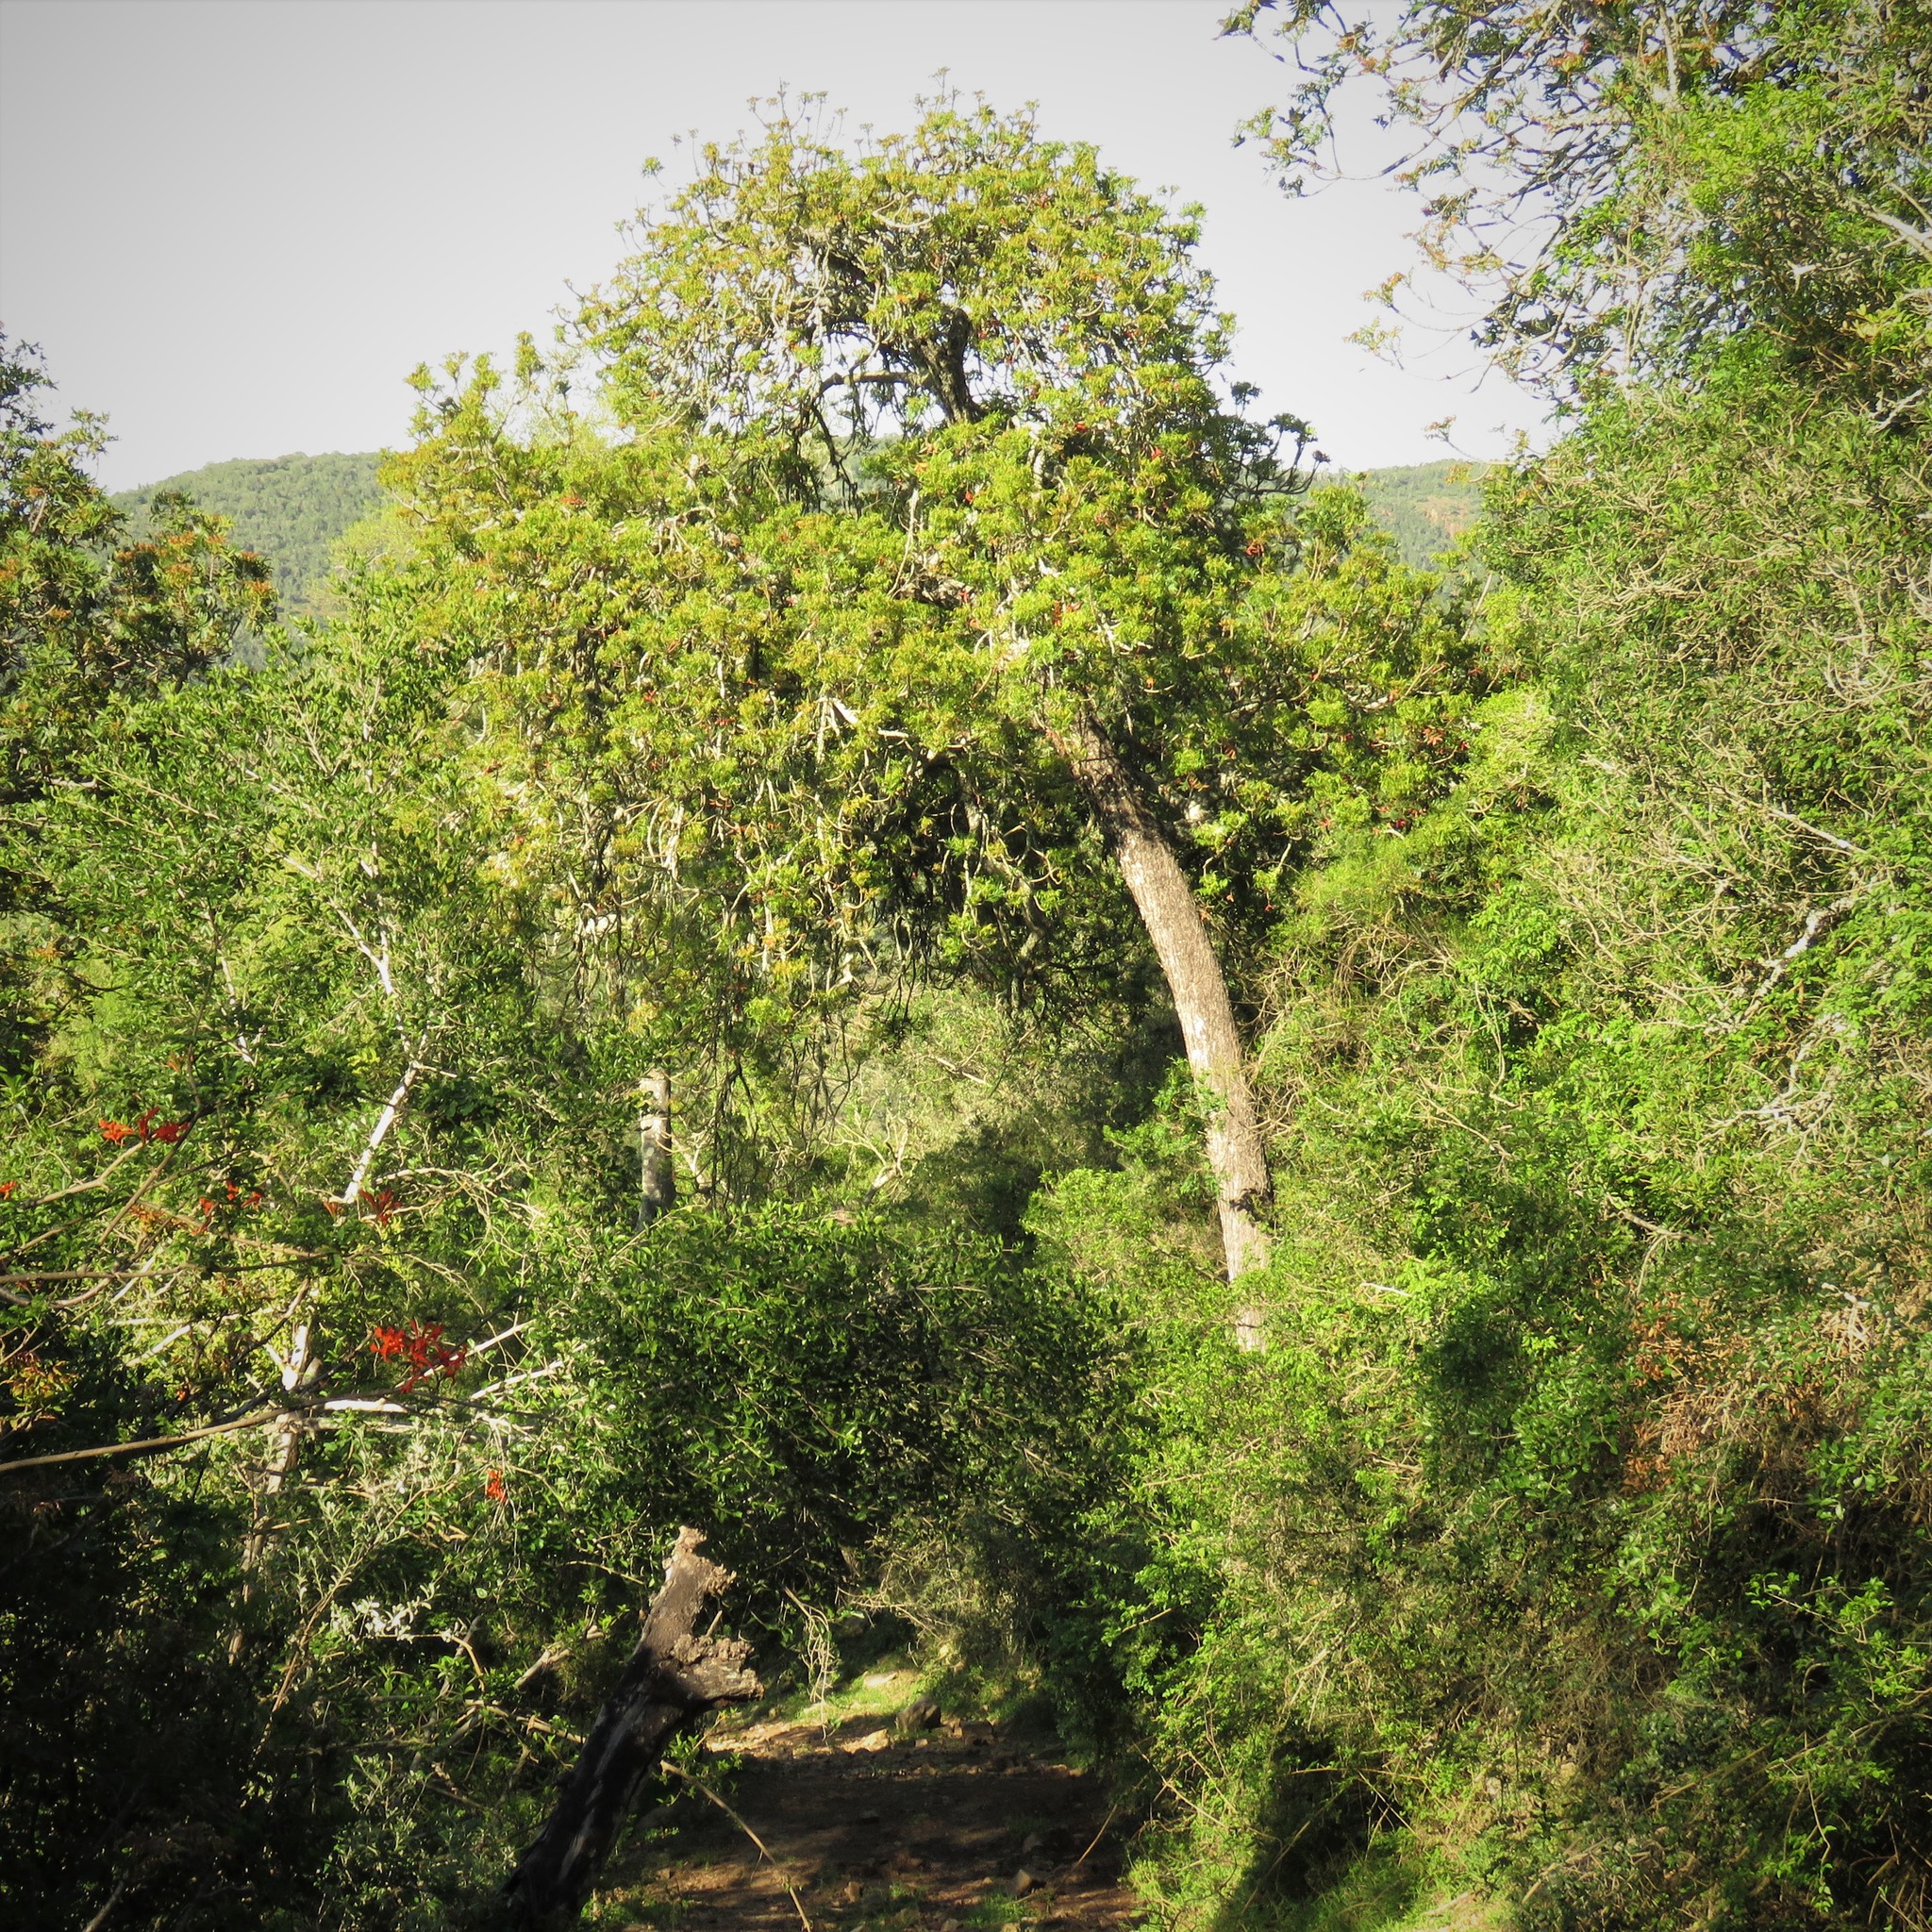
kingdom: Plantae
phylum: Tracheophyta
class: Magnoliopsida
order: Sapindales
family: Anacardiaceae
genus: Harpephyllum
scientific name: Harpephyllum caffrum
